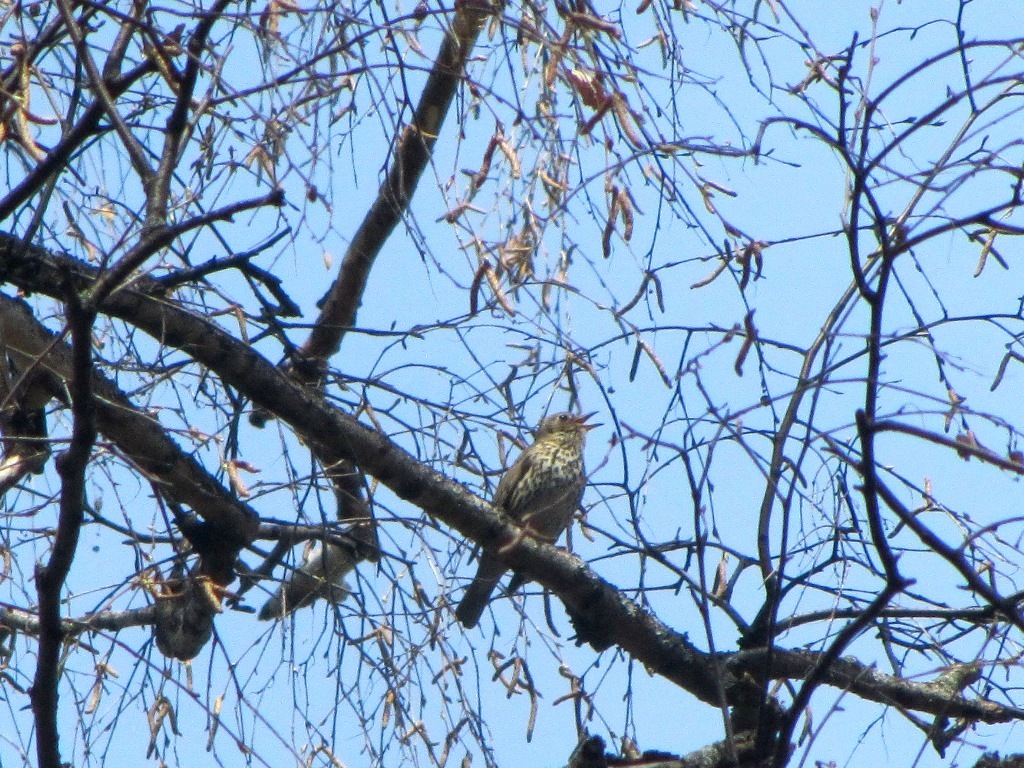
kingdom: Animalia
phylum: Chordata
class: Aves
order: Passeriformes
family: Turdidae
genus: Turdus
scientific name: Turdus philomelos
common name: Song thrush
